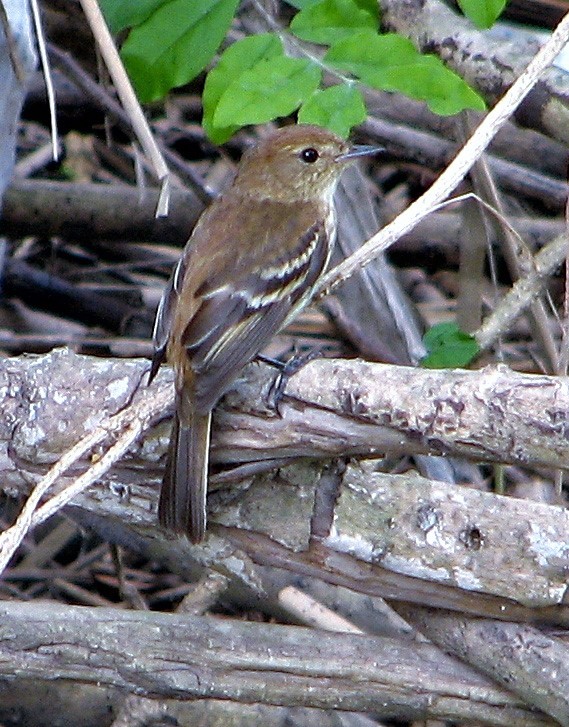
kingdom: Animalia
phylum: Chordata
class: Aves
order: Passeriformes
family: Tyrannidae
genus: Myiophobus
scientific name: Myiophobus fasciatus
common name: Bran-colored flycatcher
